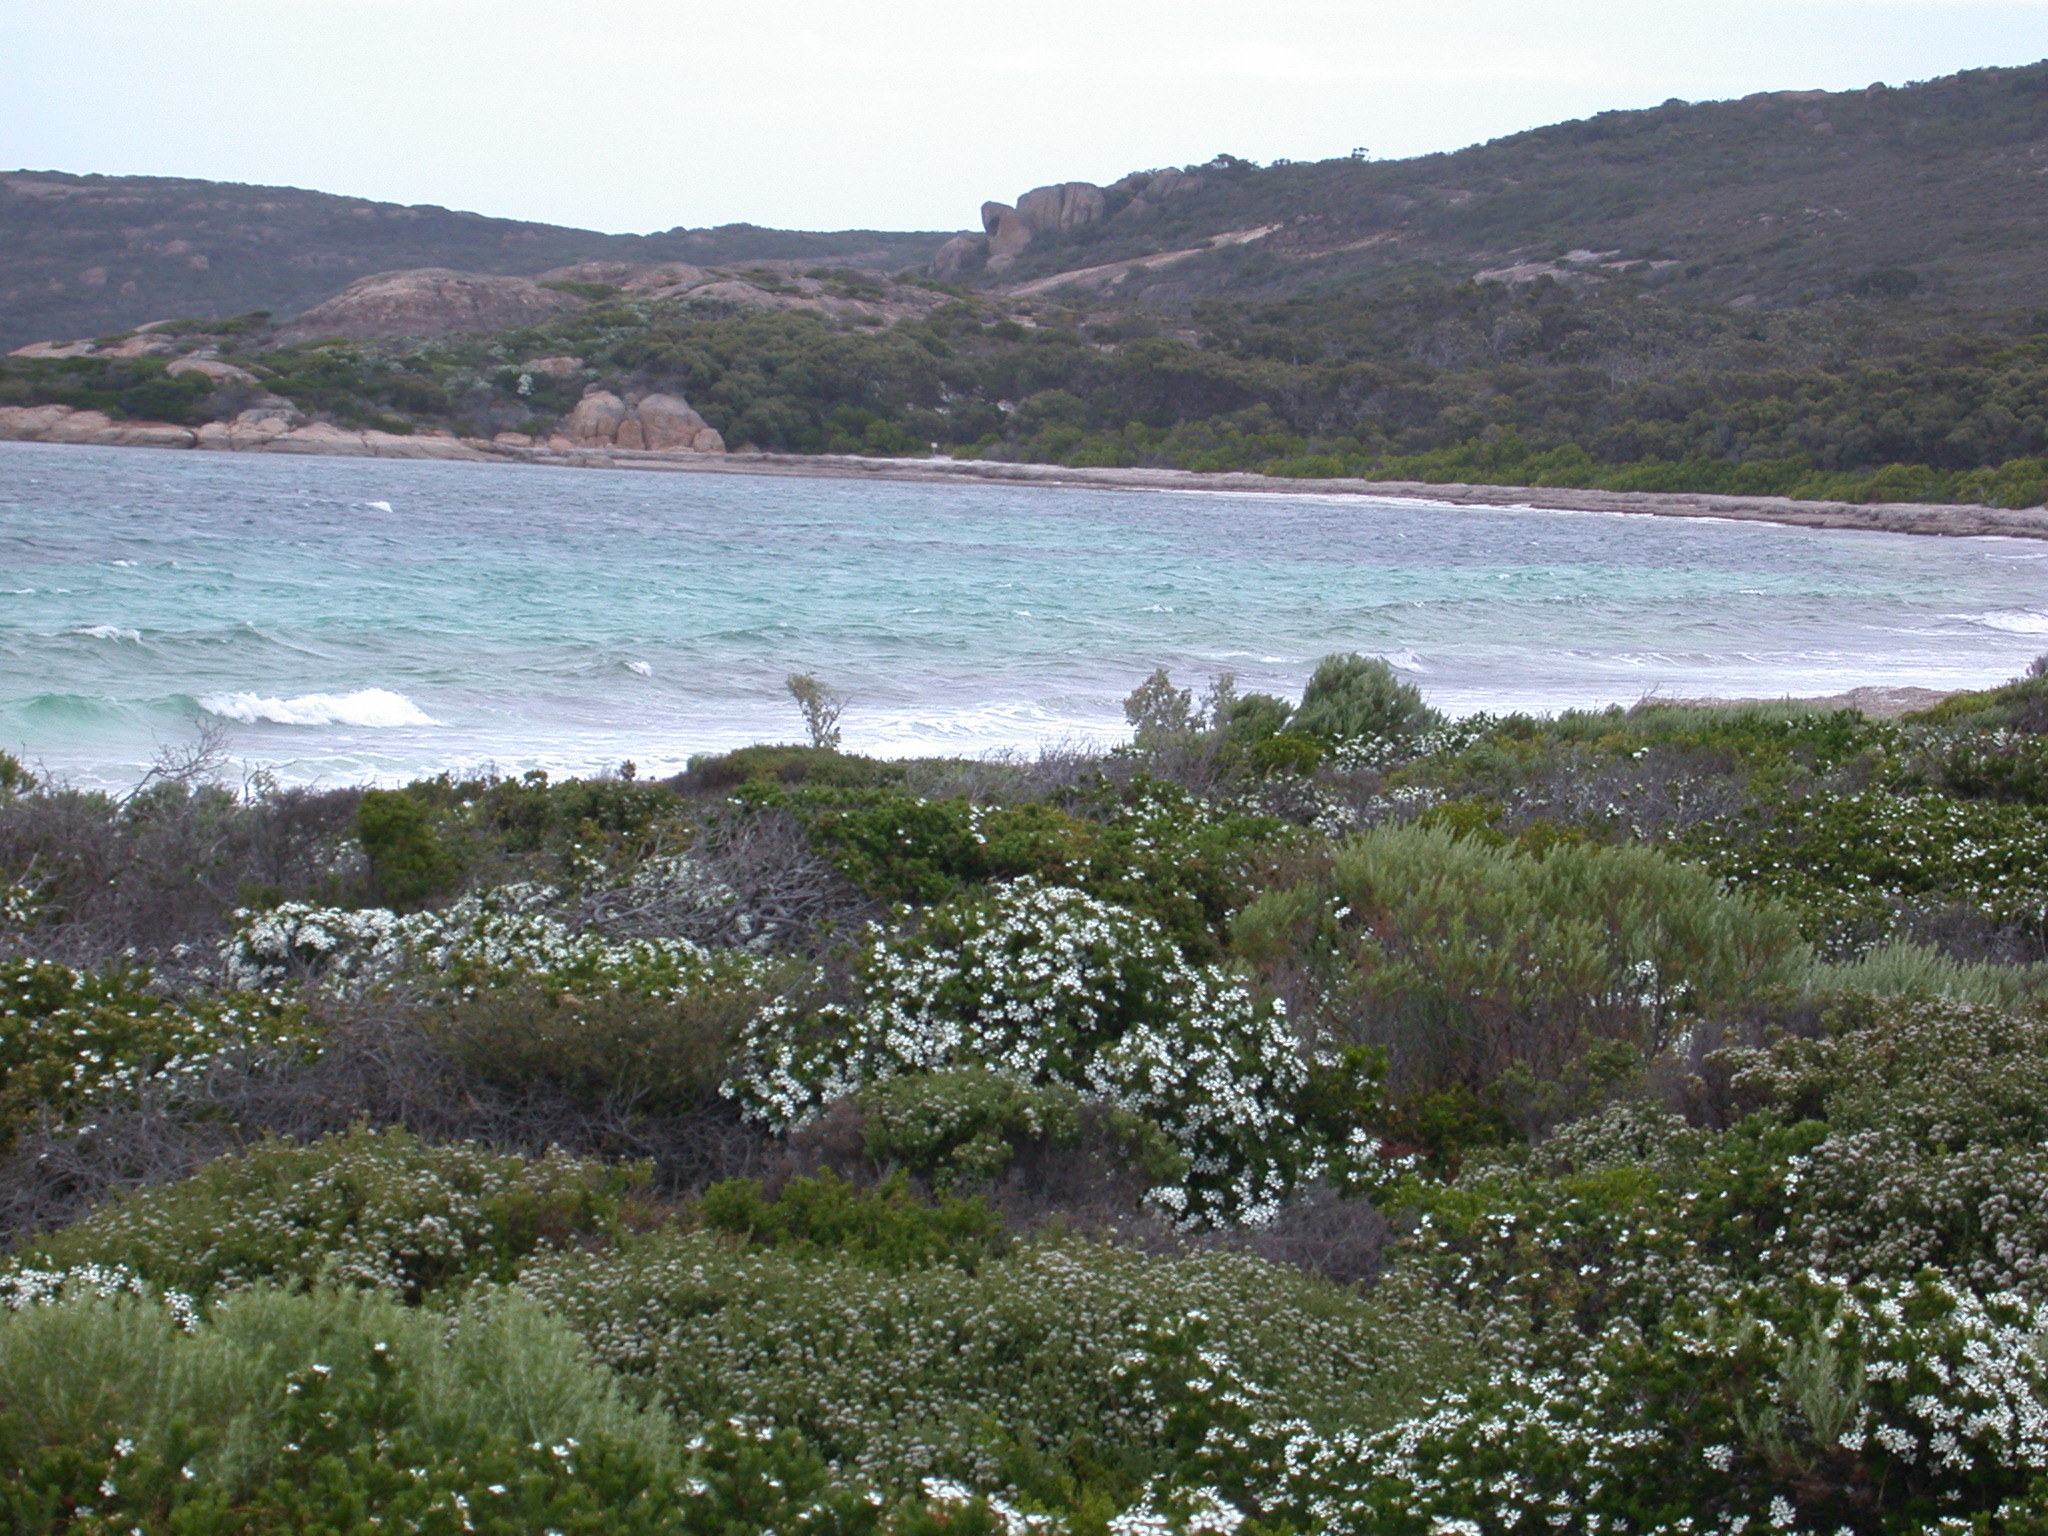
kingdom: Plantae
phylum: Tracheophyta
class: Magnoliopsida
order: Malpighiales
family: Euphorbiaceae
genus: Ricinocarpos
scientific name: Ricinocarpos megalocarpus
